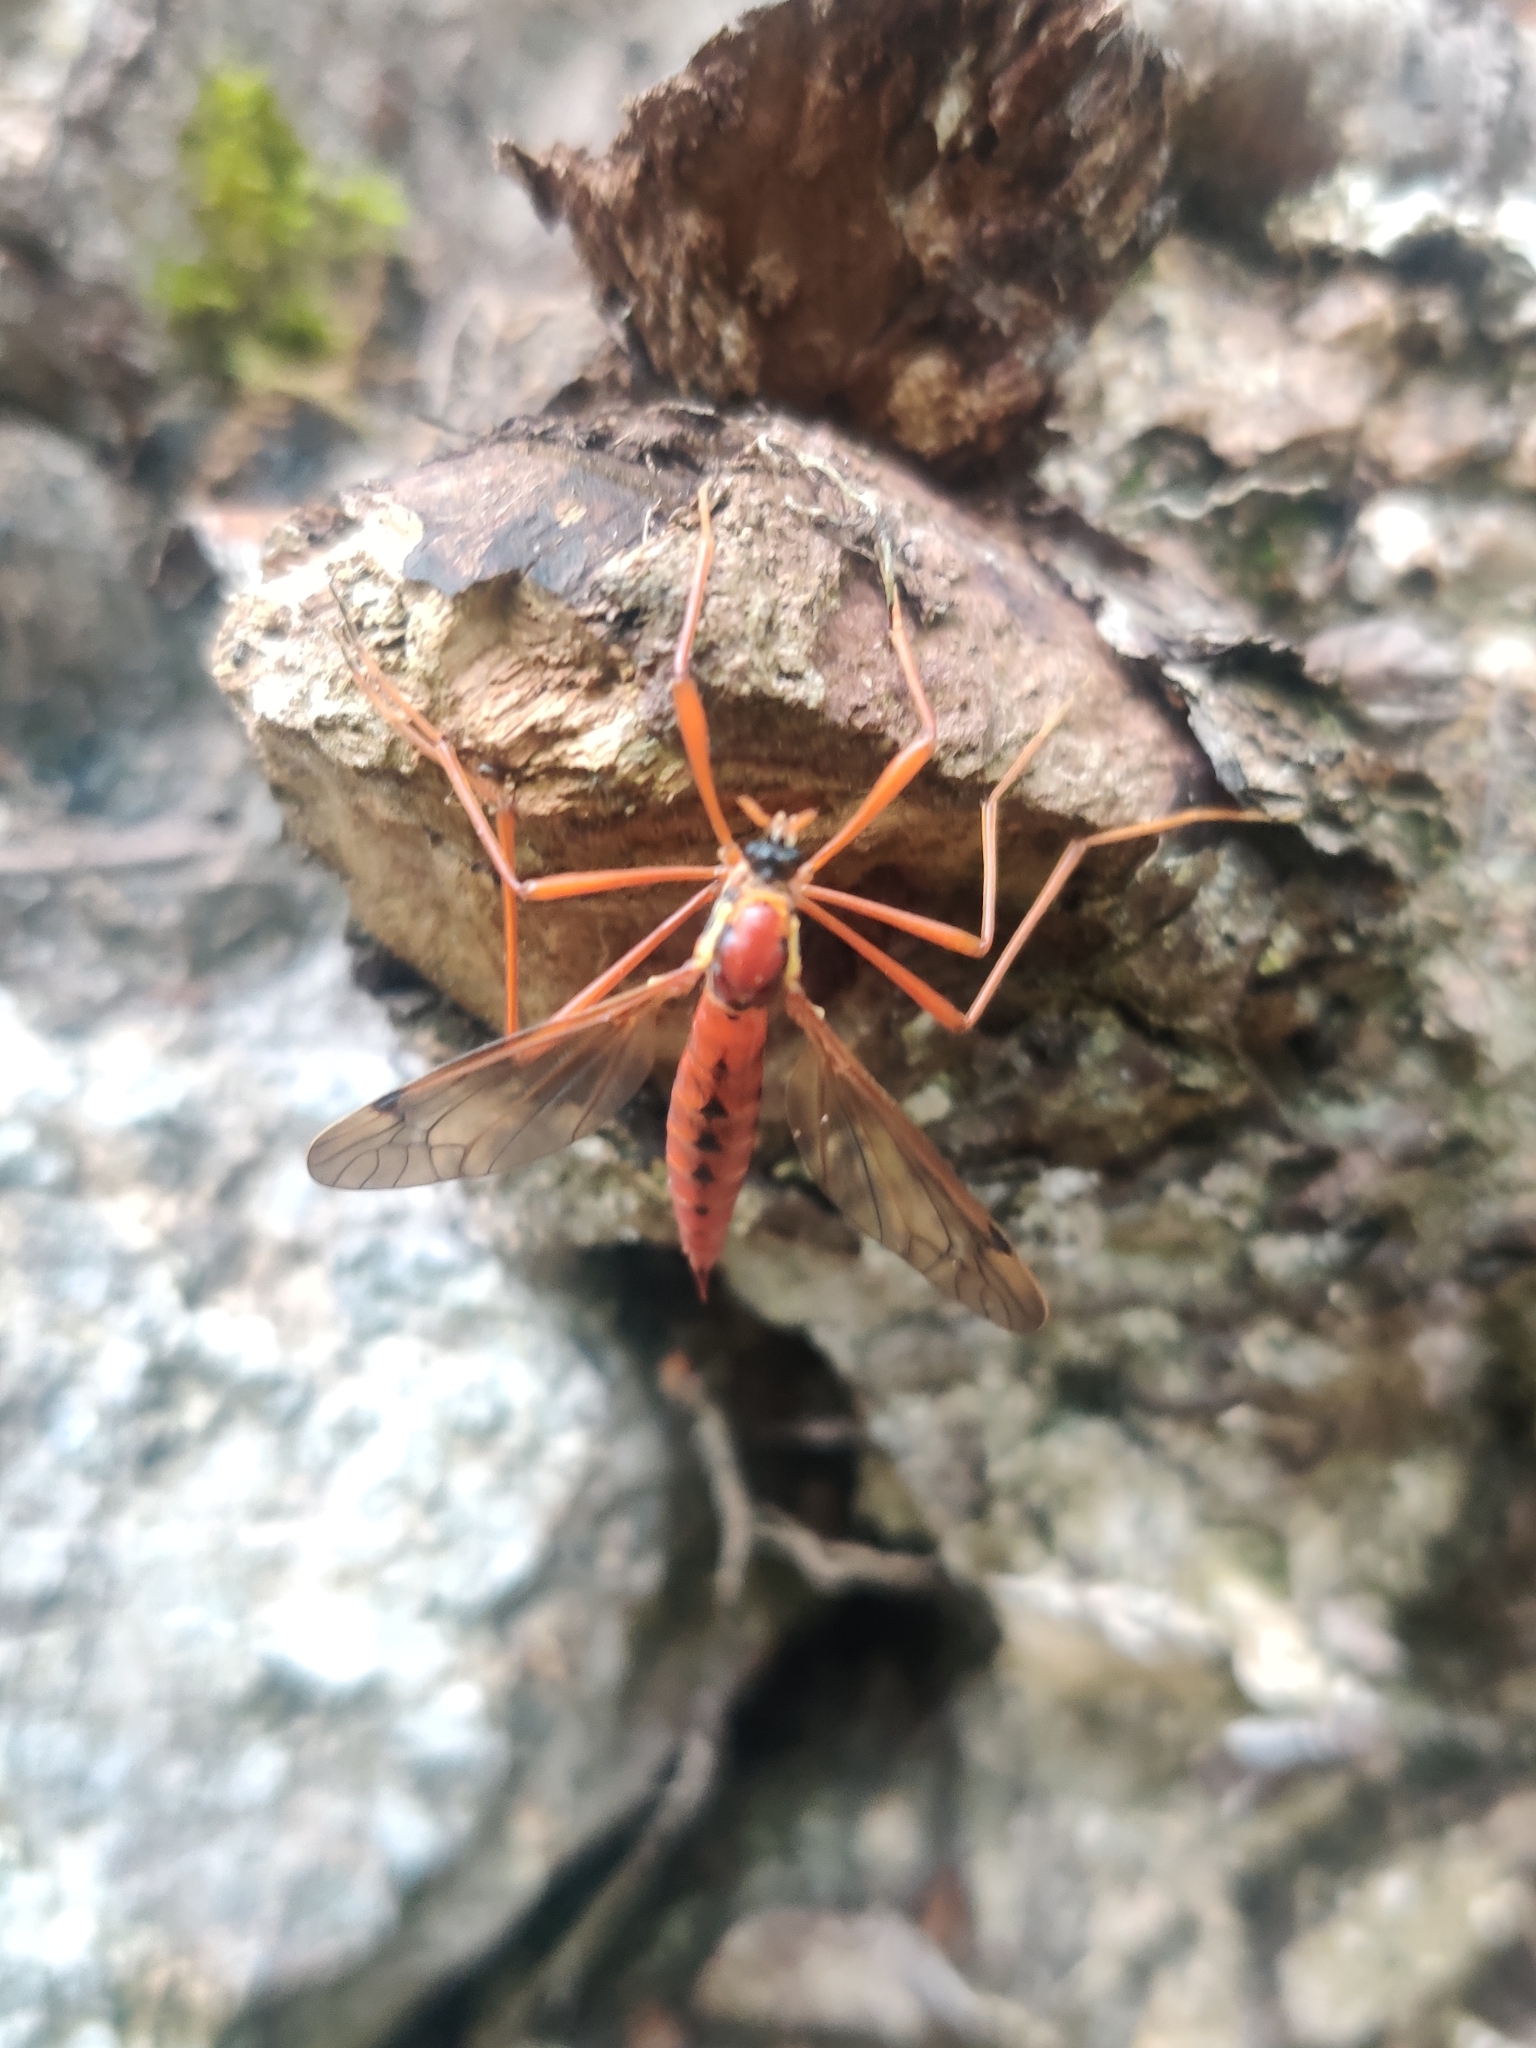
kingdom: Animalia
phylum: Arthropoda
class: Insecta
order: Diptera
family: Tipulidae
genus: Phoroctenia
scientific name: Phoroctenia vittata
